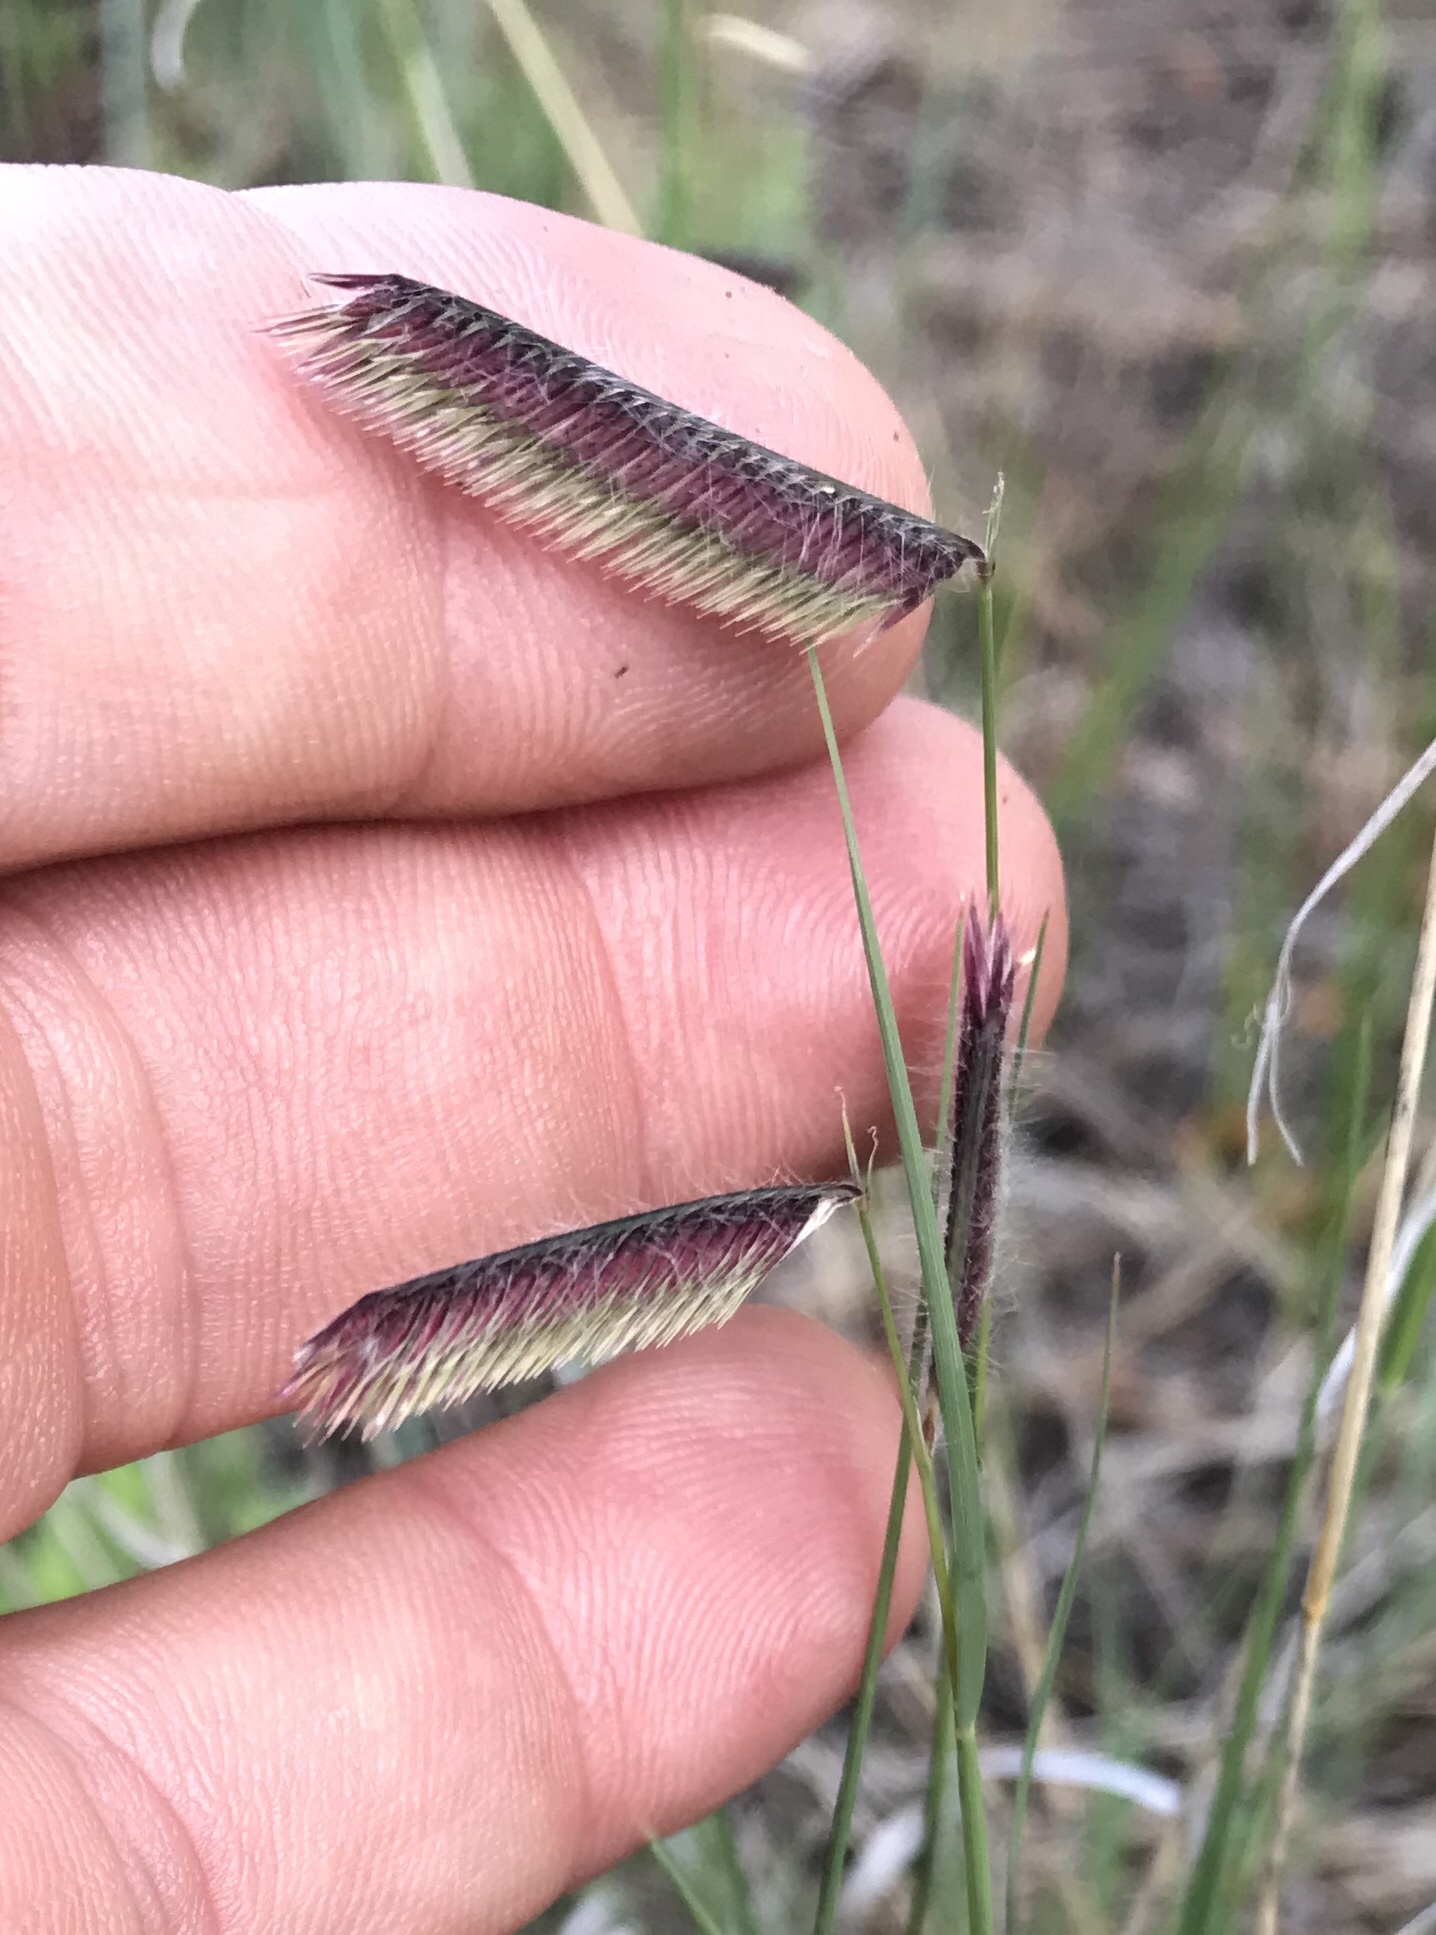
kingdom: Plantae
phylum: Tracheophyta
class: Liliopsida
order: Poales
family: Poaceae
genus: Bouteloua
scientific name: Bouteloua gracilis
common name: Blue grama
